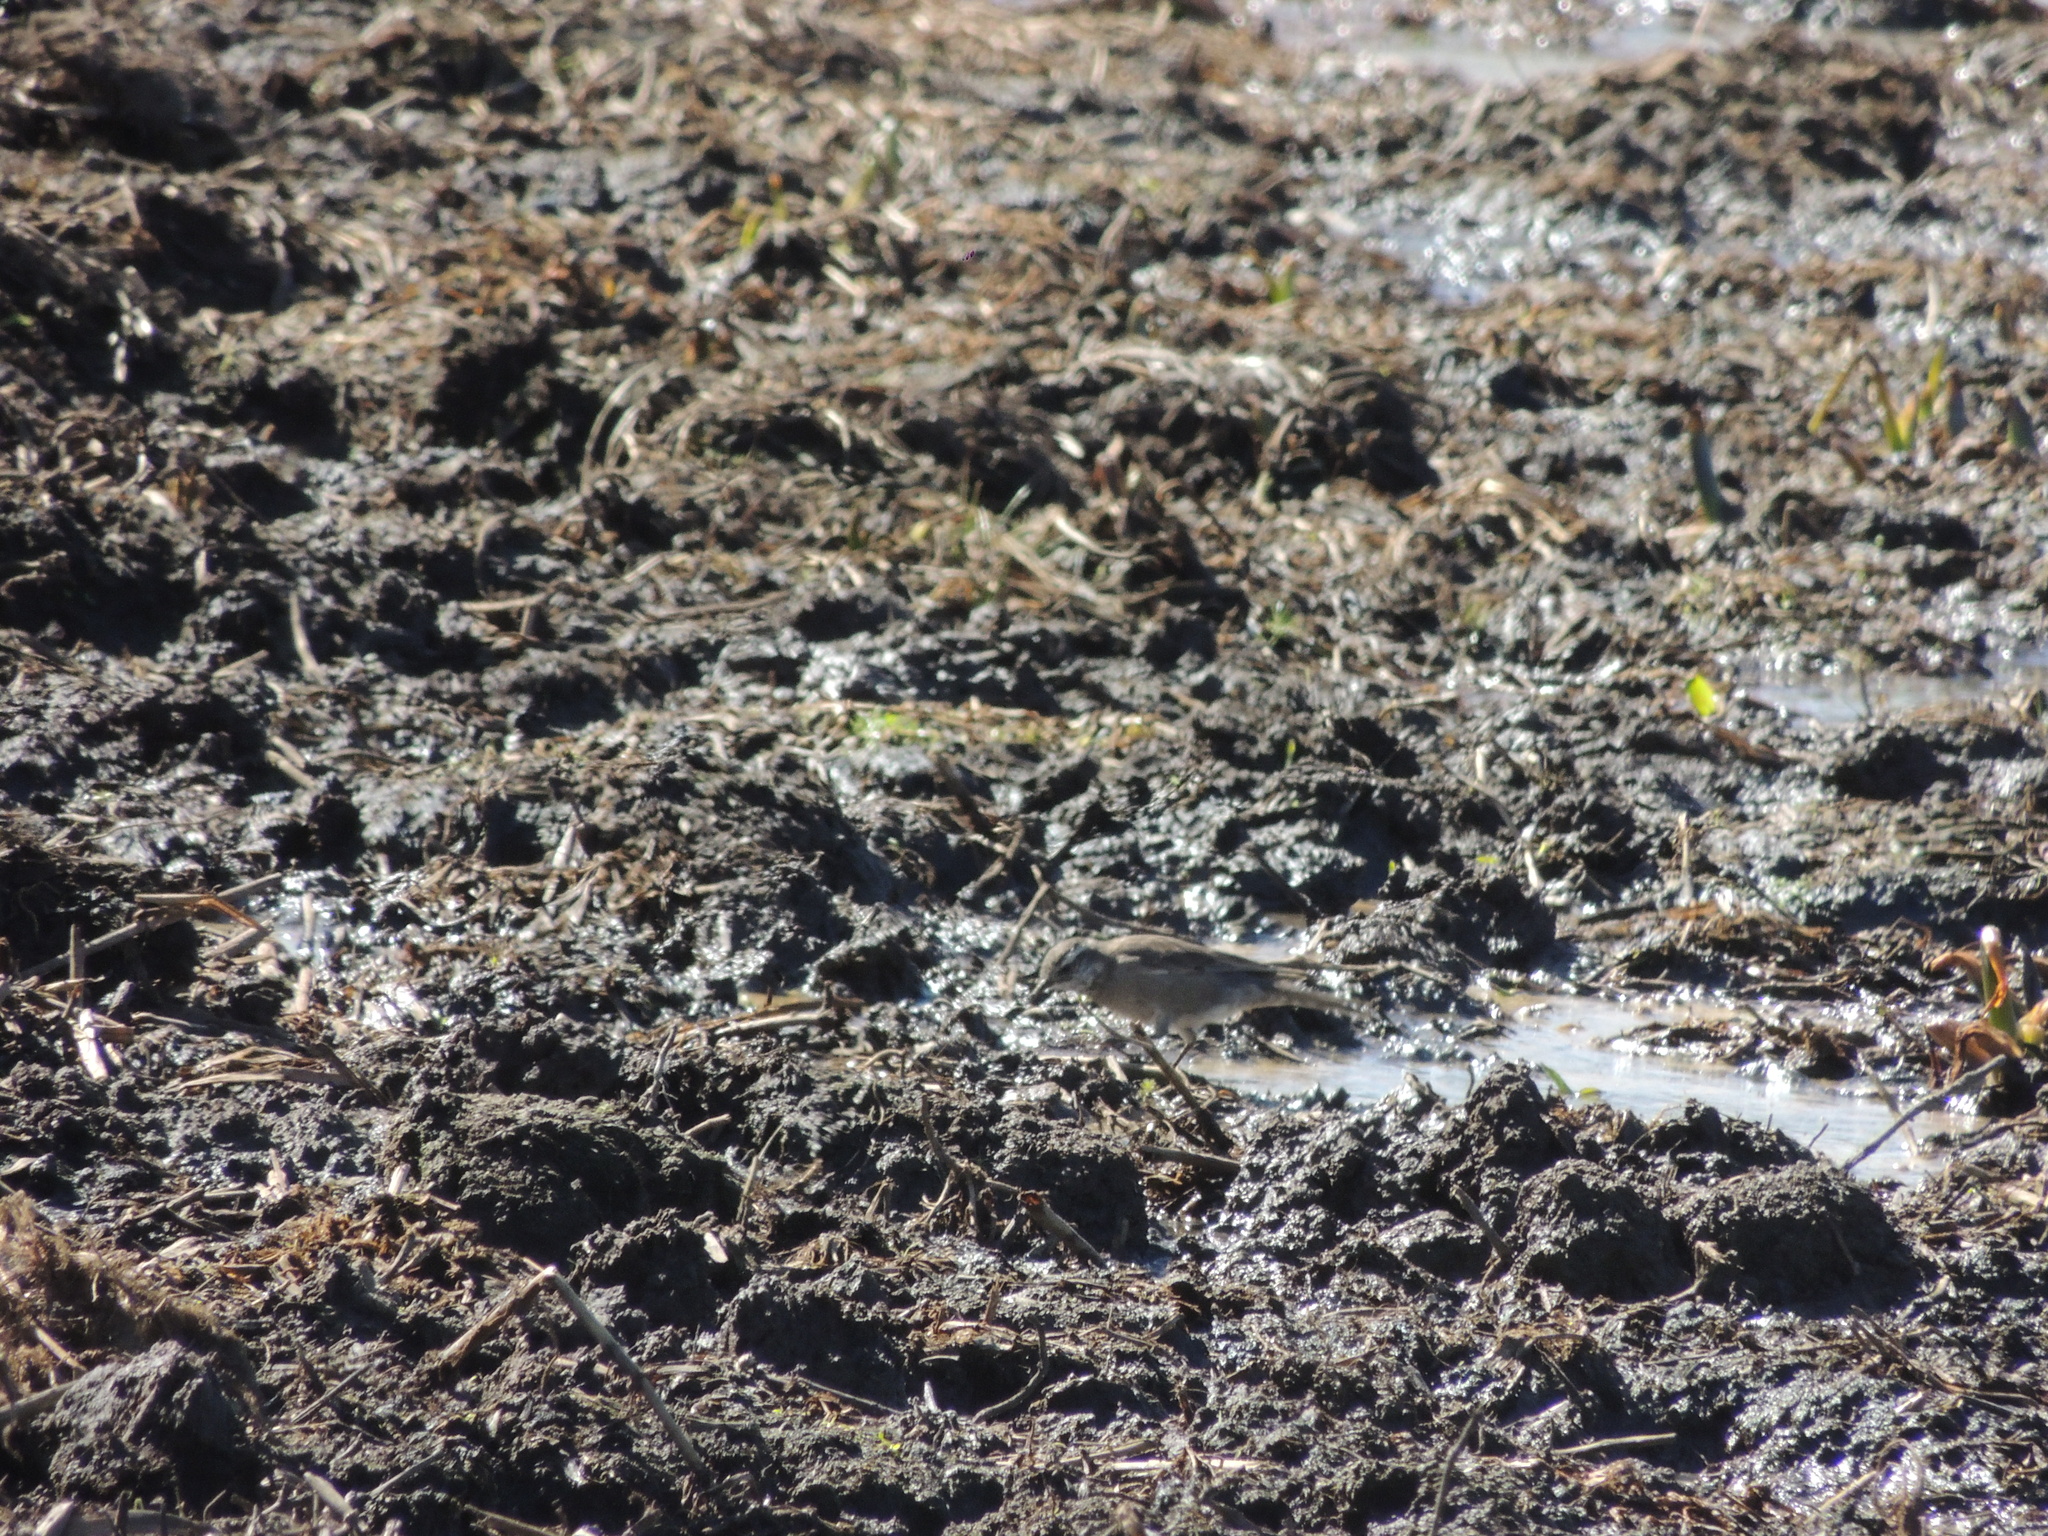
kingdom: Animalia
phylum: Chordata
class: Aves
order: Passeriformes
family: Furnariidae
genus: Cinclodes
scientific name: Cinclodes fuscus
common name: Buff-winged cinclodes
